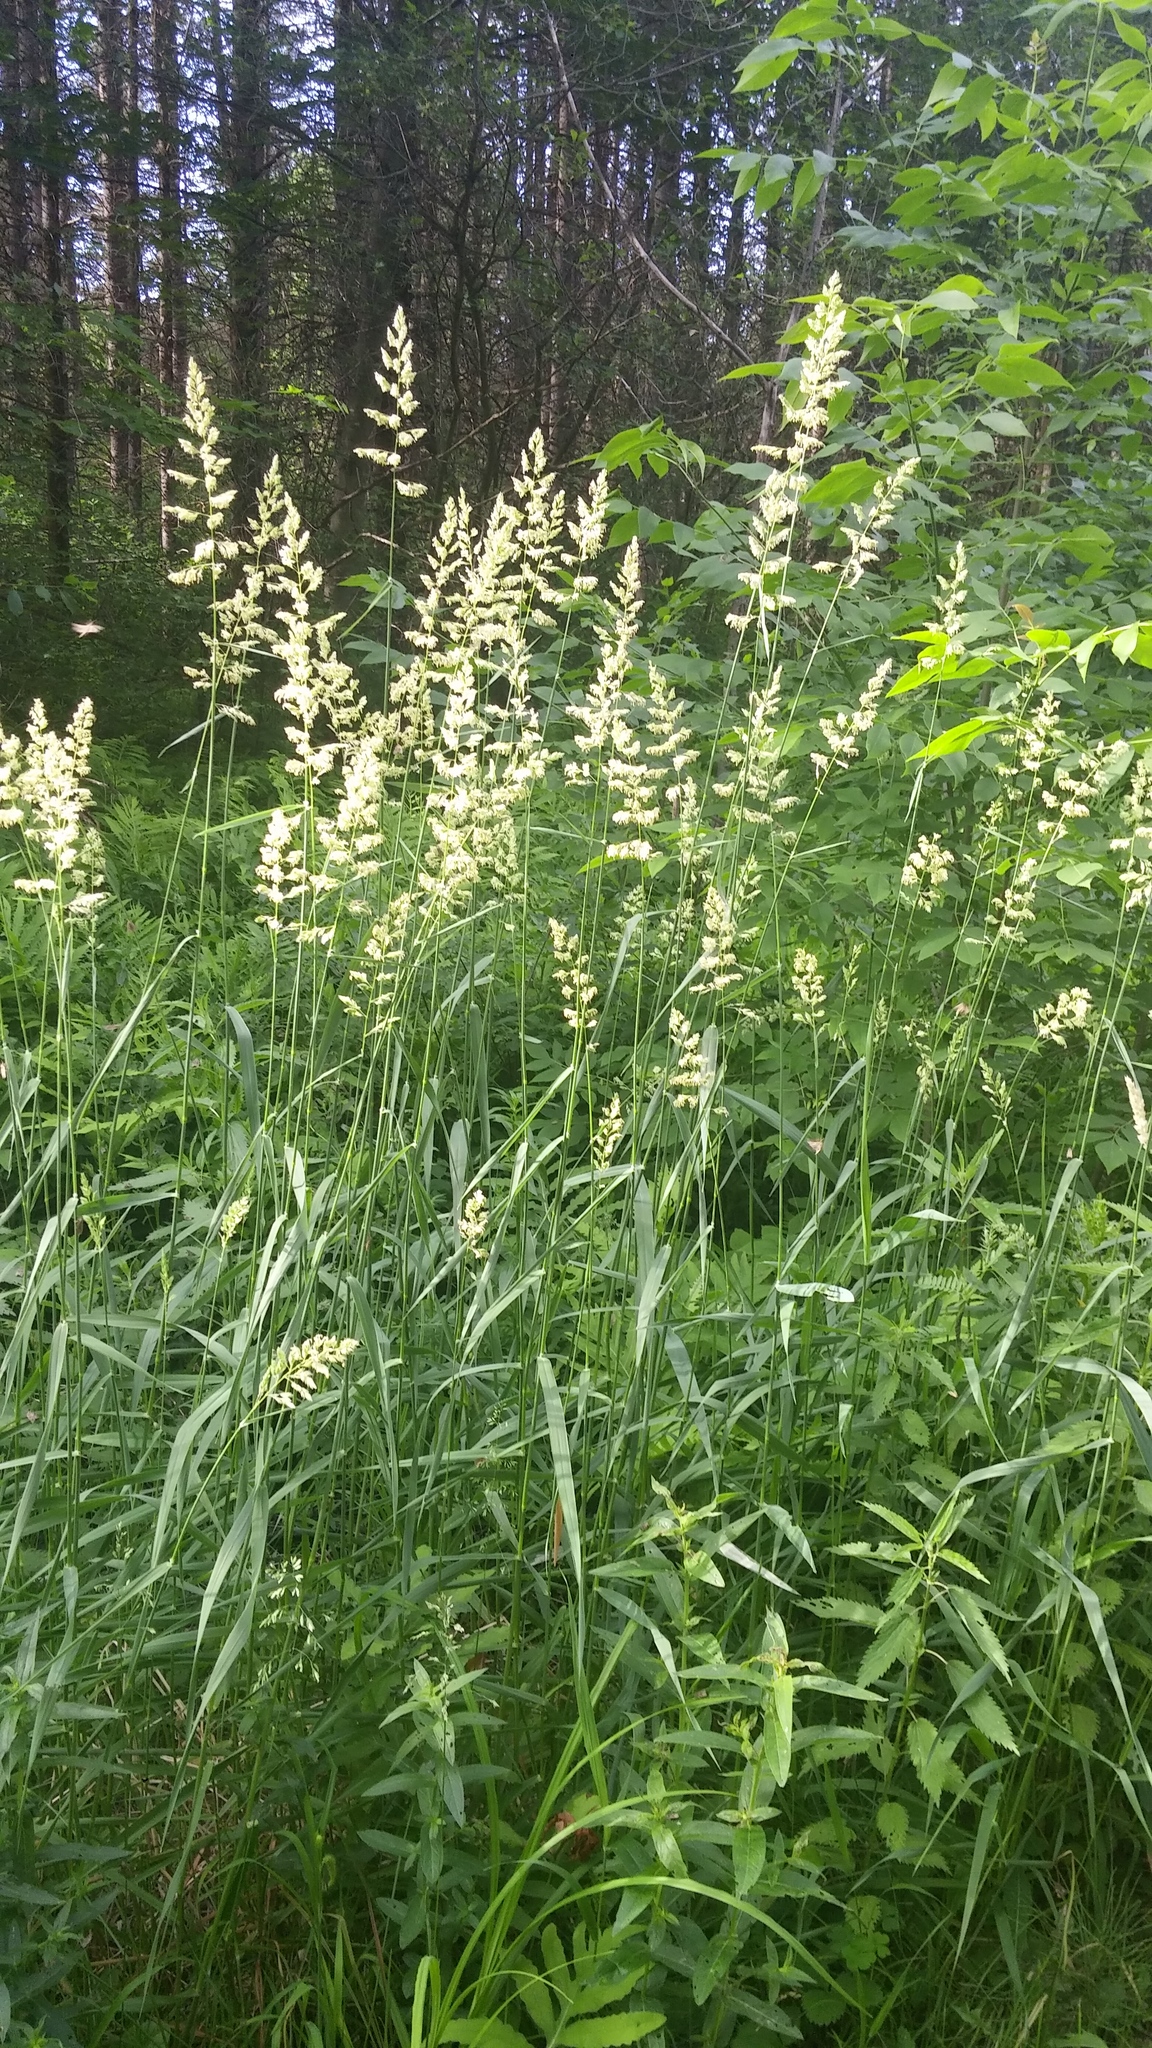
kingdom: Plantae
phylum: Tracheophyta
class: Liliopsida
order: Poales
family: Poaceae
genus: Phalaris
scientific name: Phalaris arundinacea
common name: Reed canary-grass
